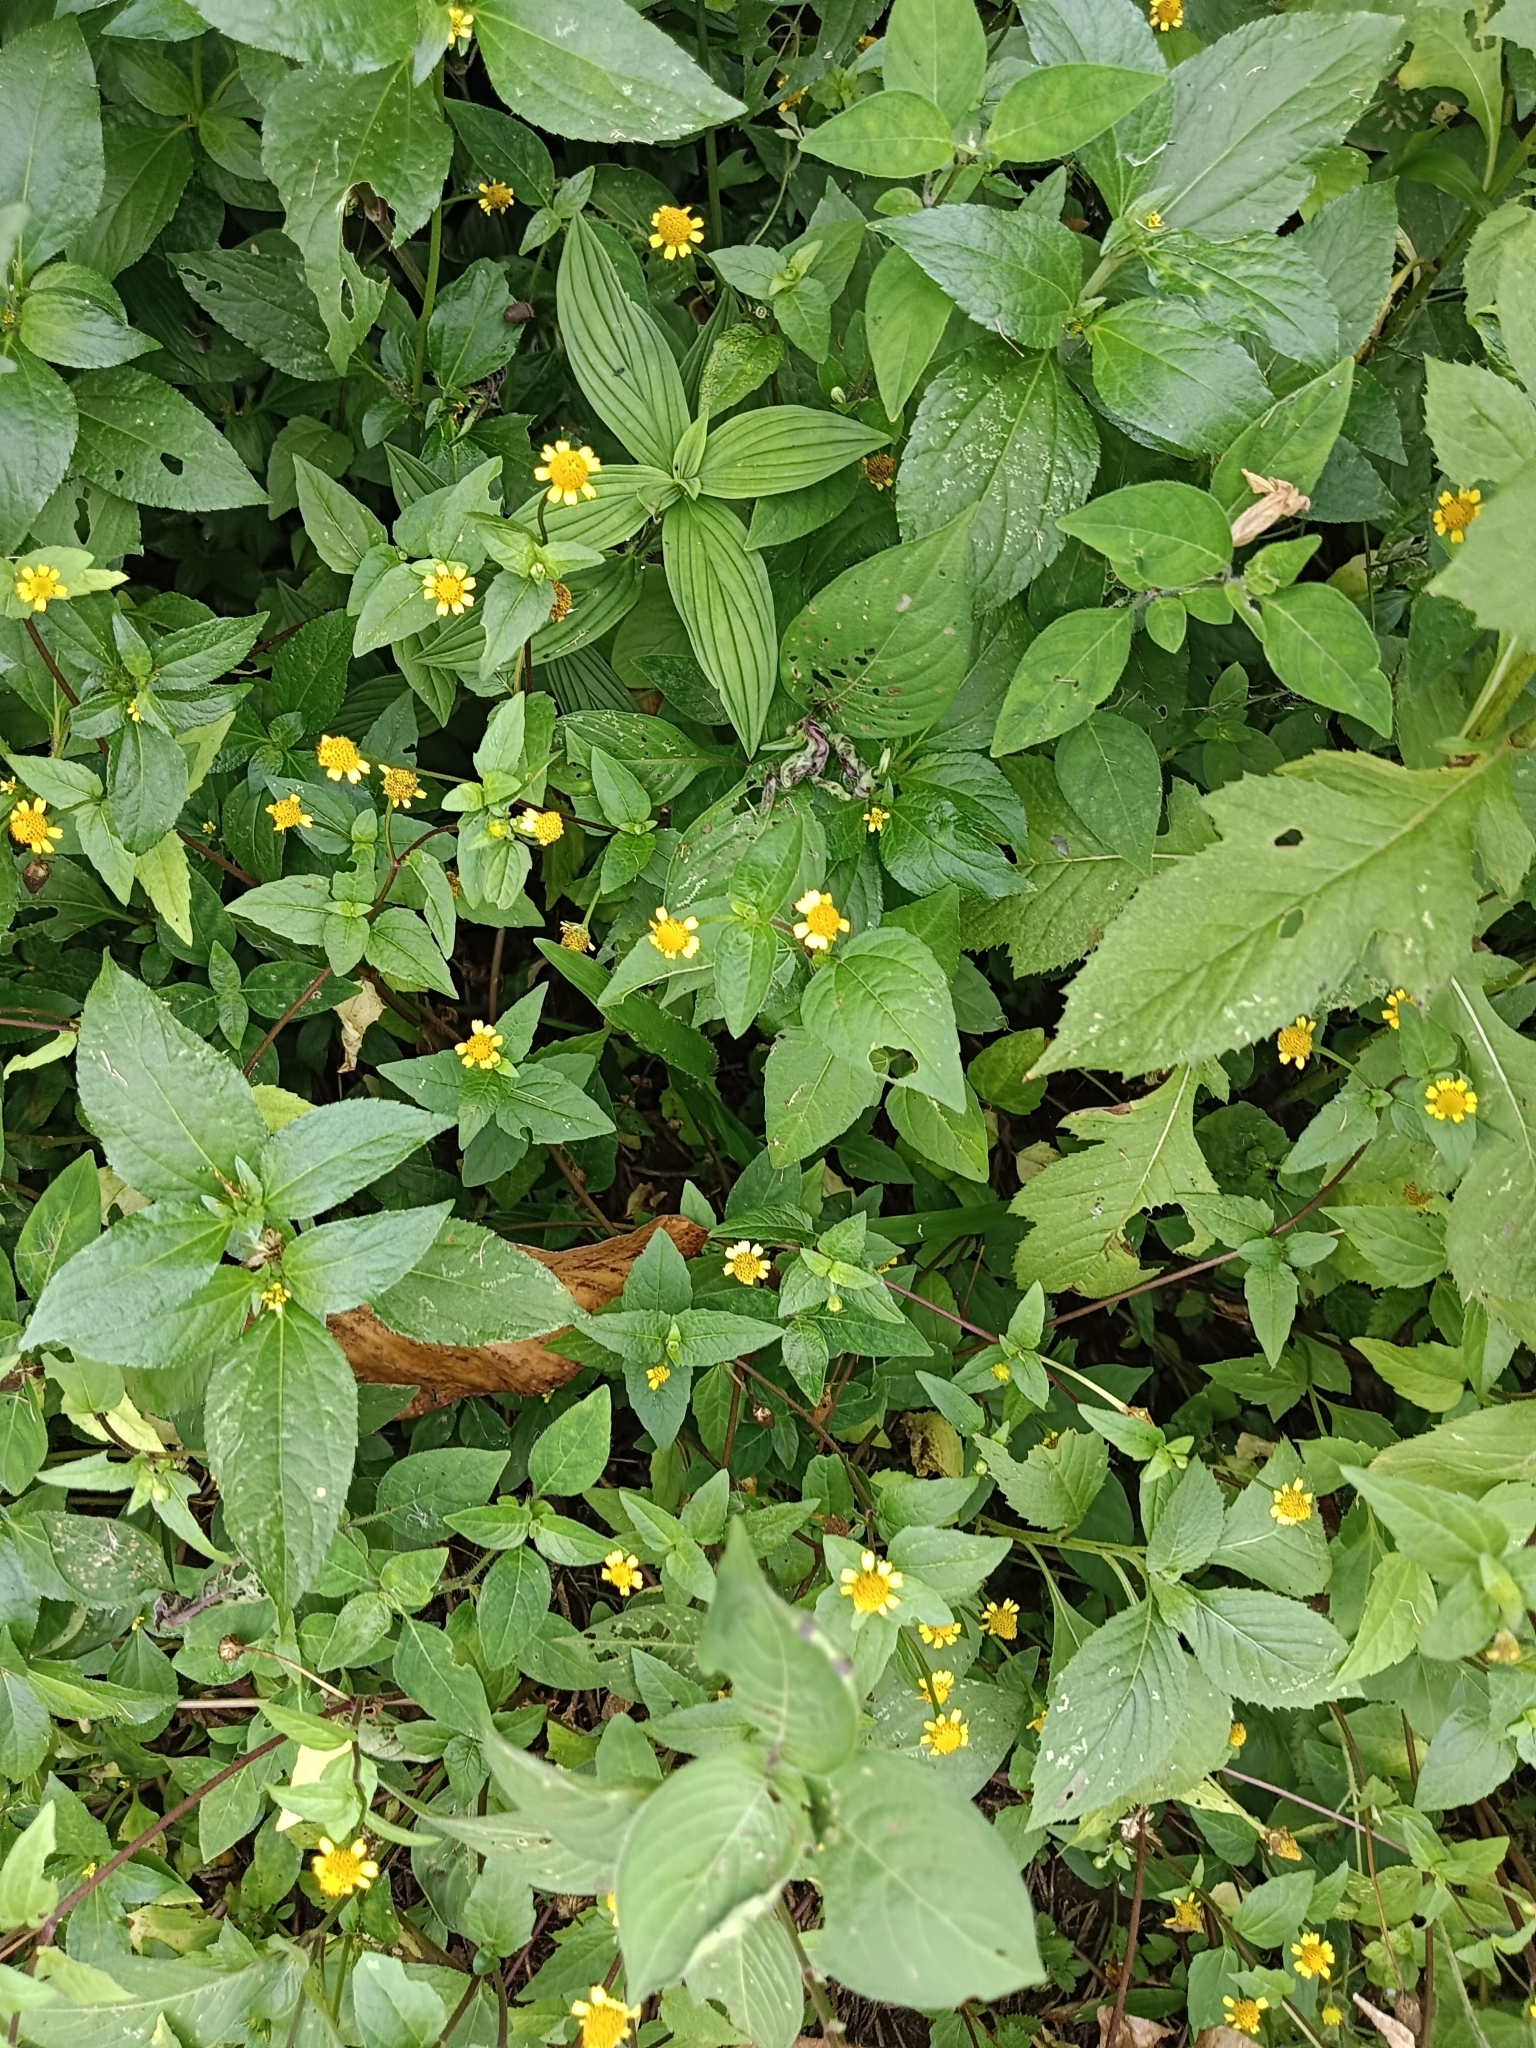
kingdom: Plantae
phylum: Tracheophyta
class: Magnoliopsida
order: Asterales
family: Asteraceae
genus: Acmella
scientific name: Acmella uliginosa
